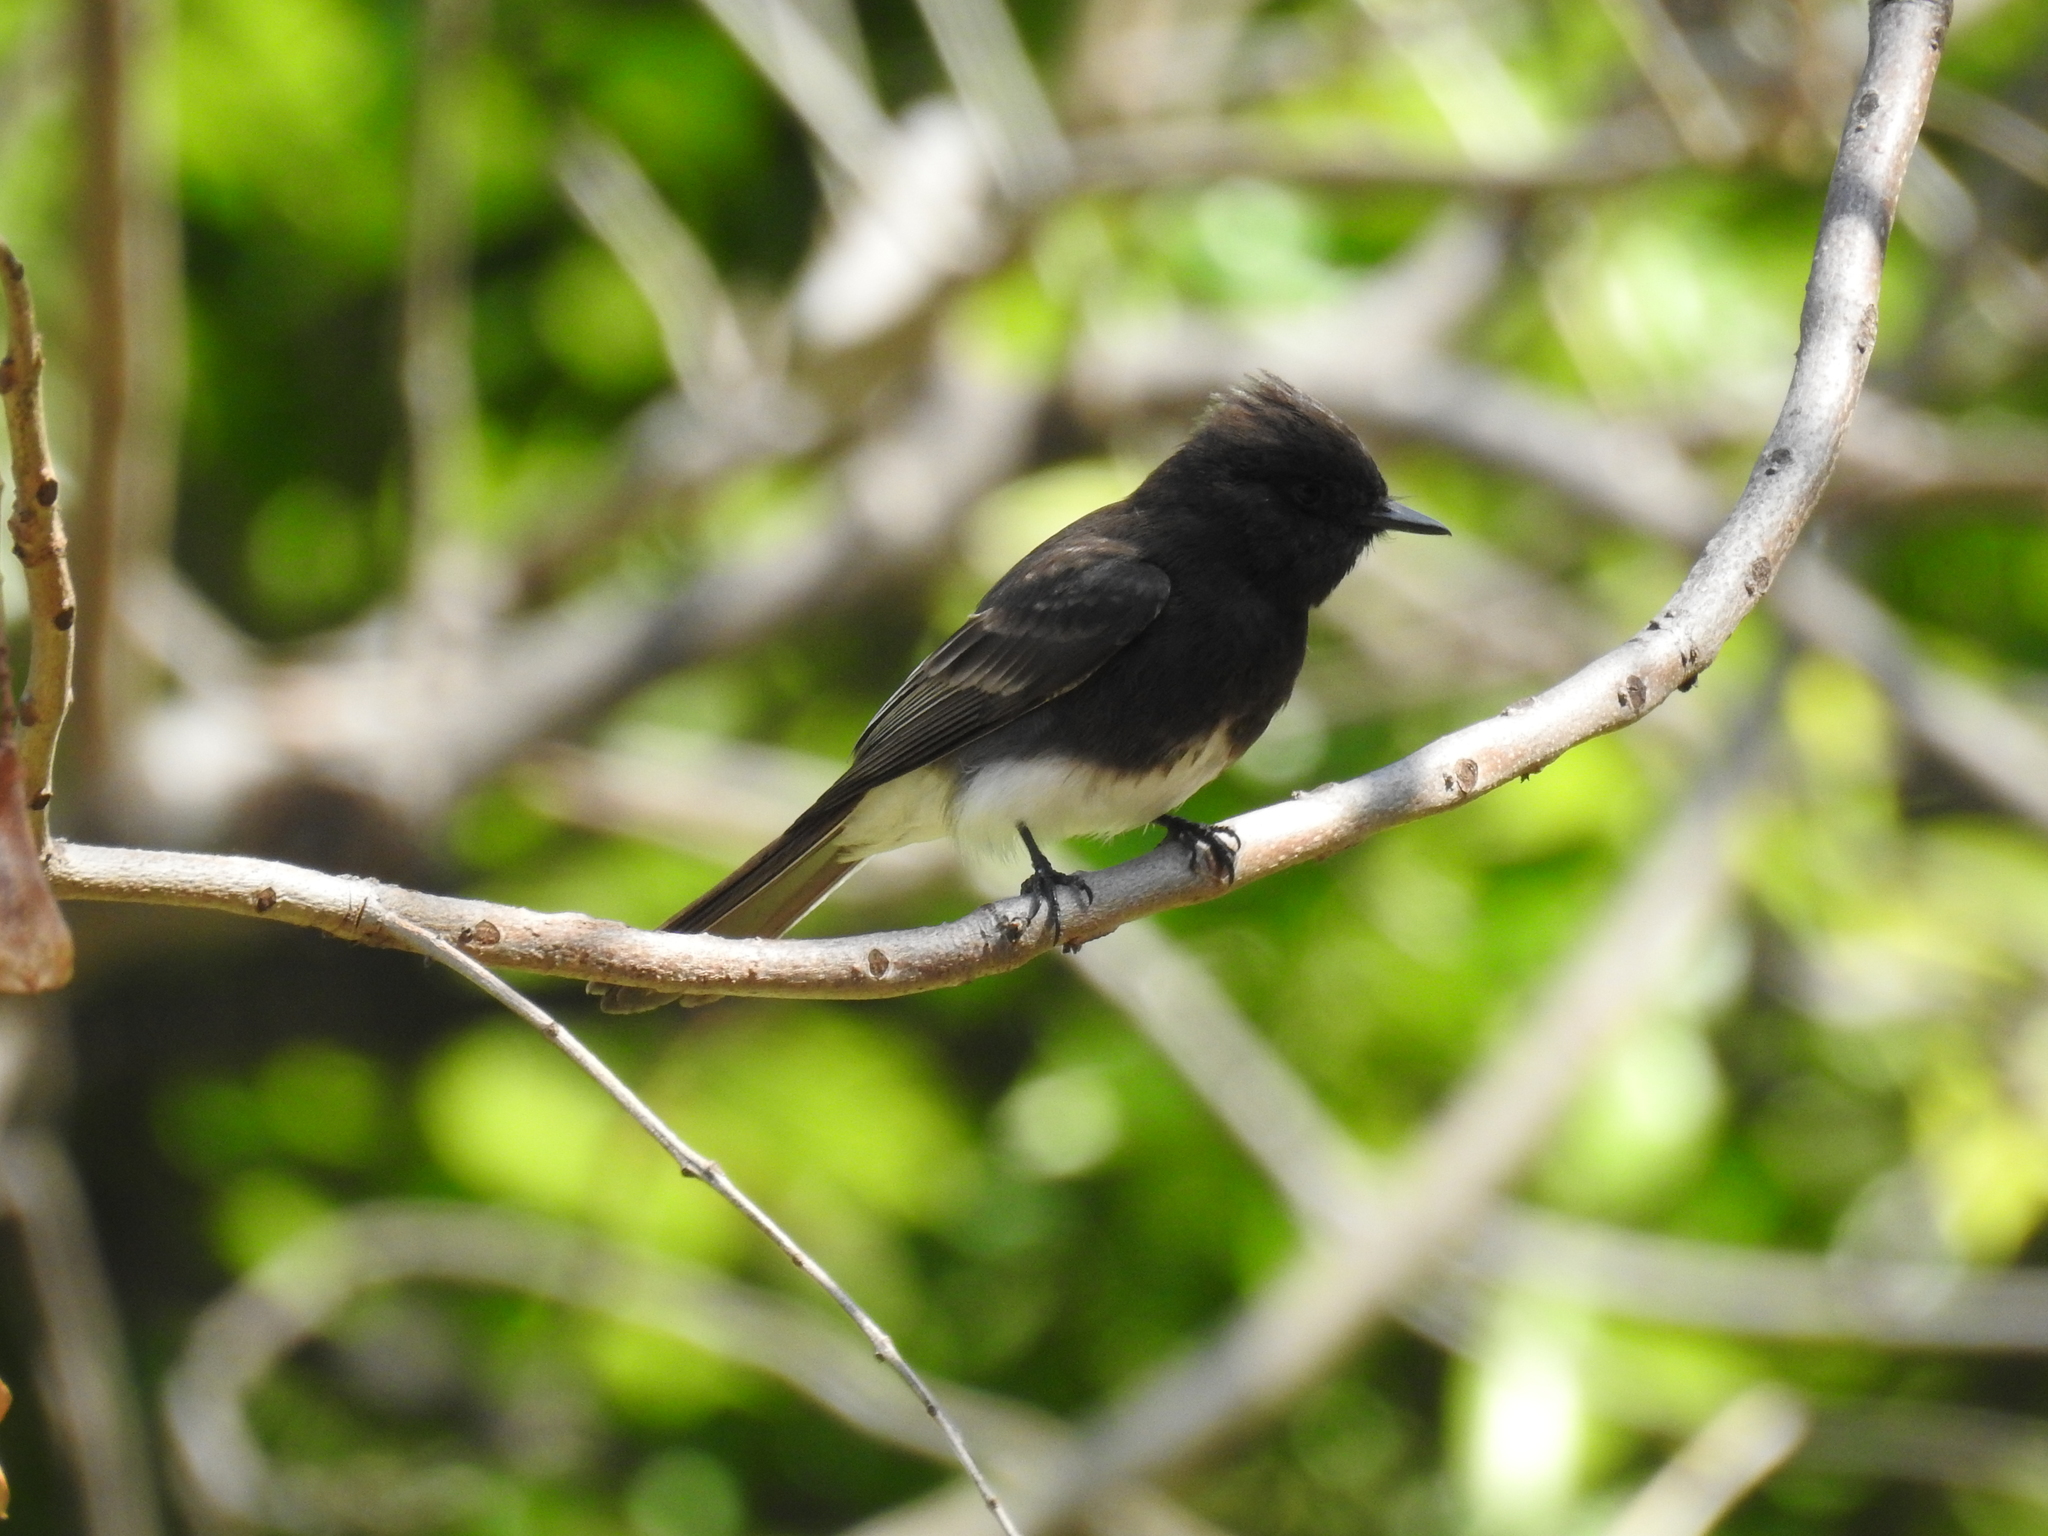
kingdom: Animalia
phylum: Chordata
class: Aves
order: Passeriformes
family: Tyrannidae
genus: Sayornis
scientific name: Sayornis nigricans
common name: Black phoebe
